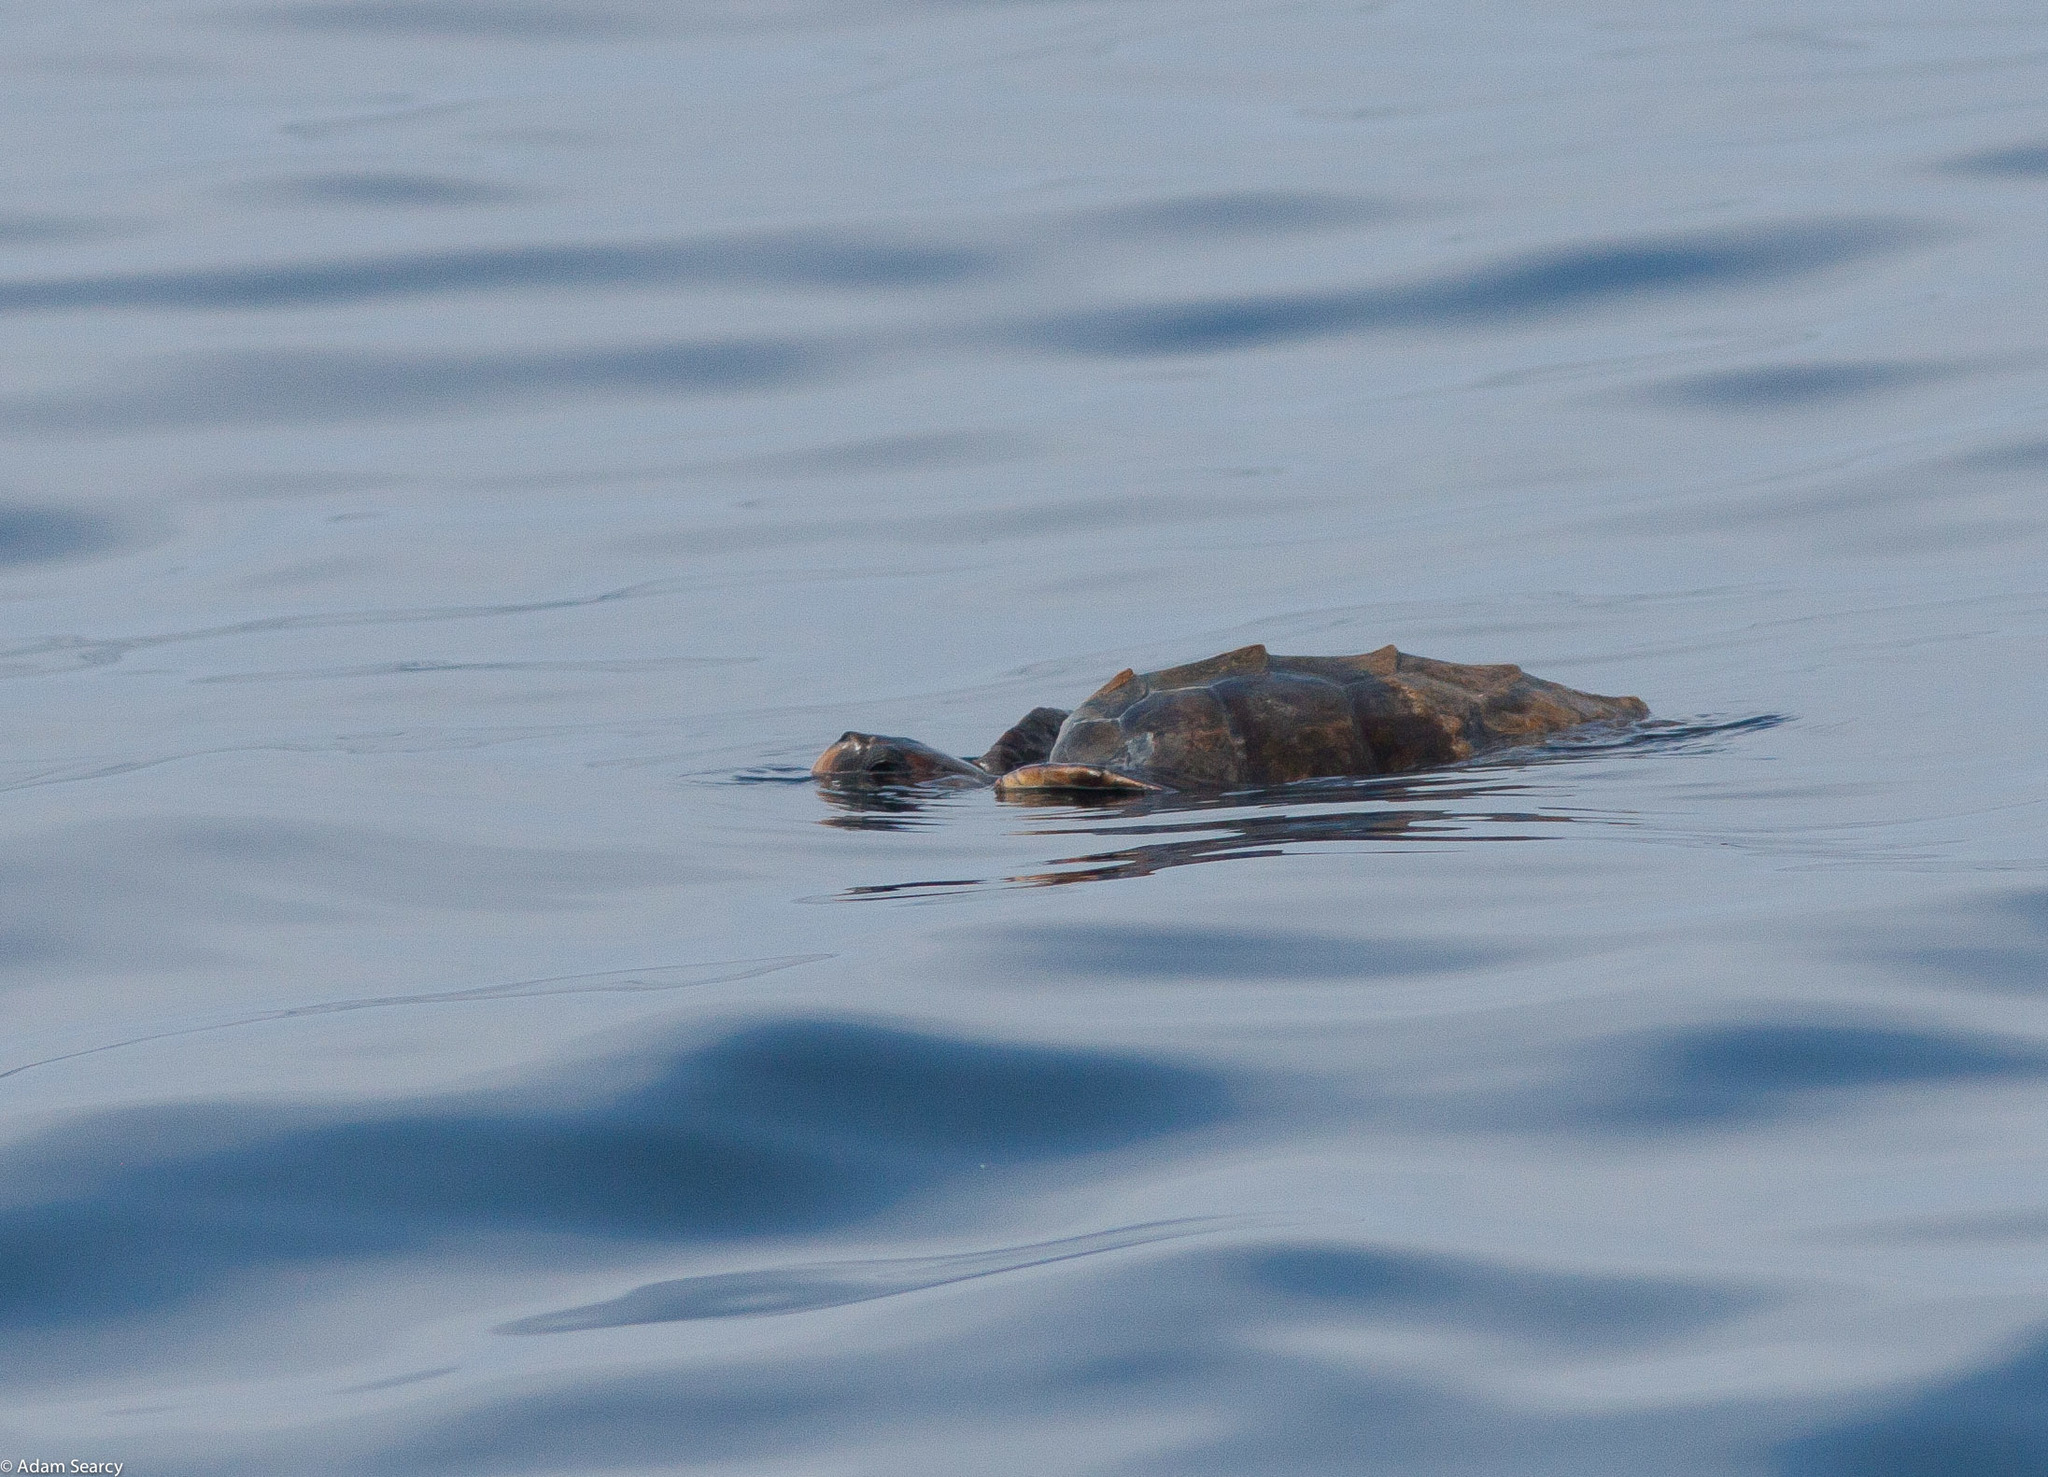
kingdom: Animalia
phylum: Chordata
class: Testudines
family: Cheloniidae
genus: Caretta
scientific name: Caretta caretta
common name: Loggerhead sea turtle
